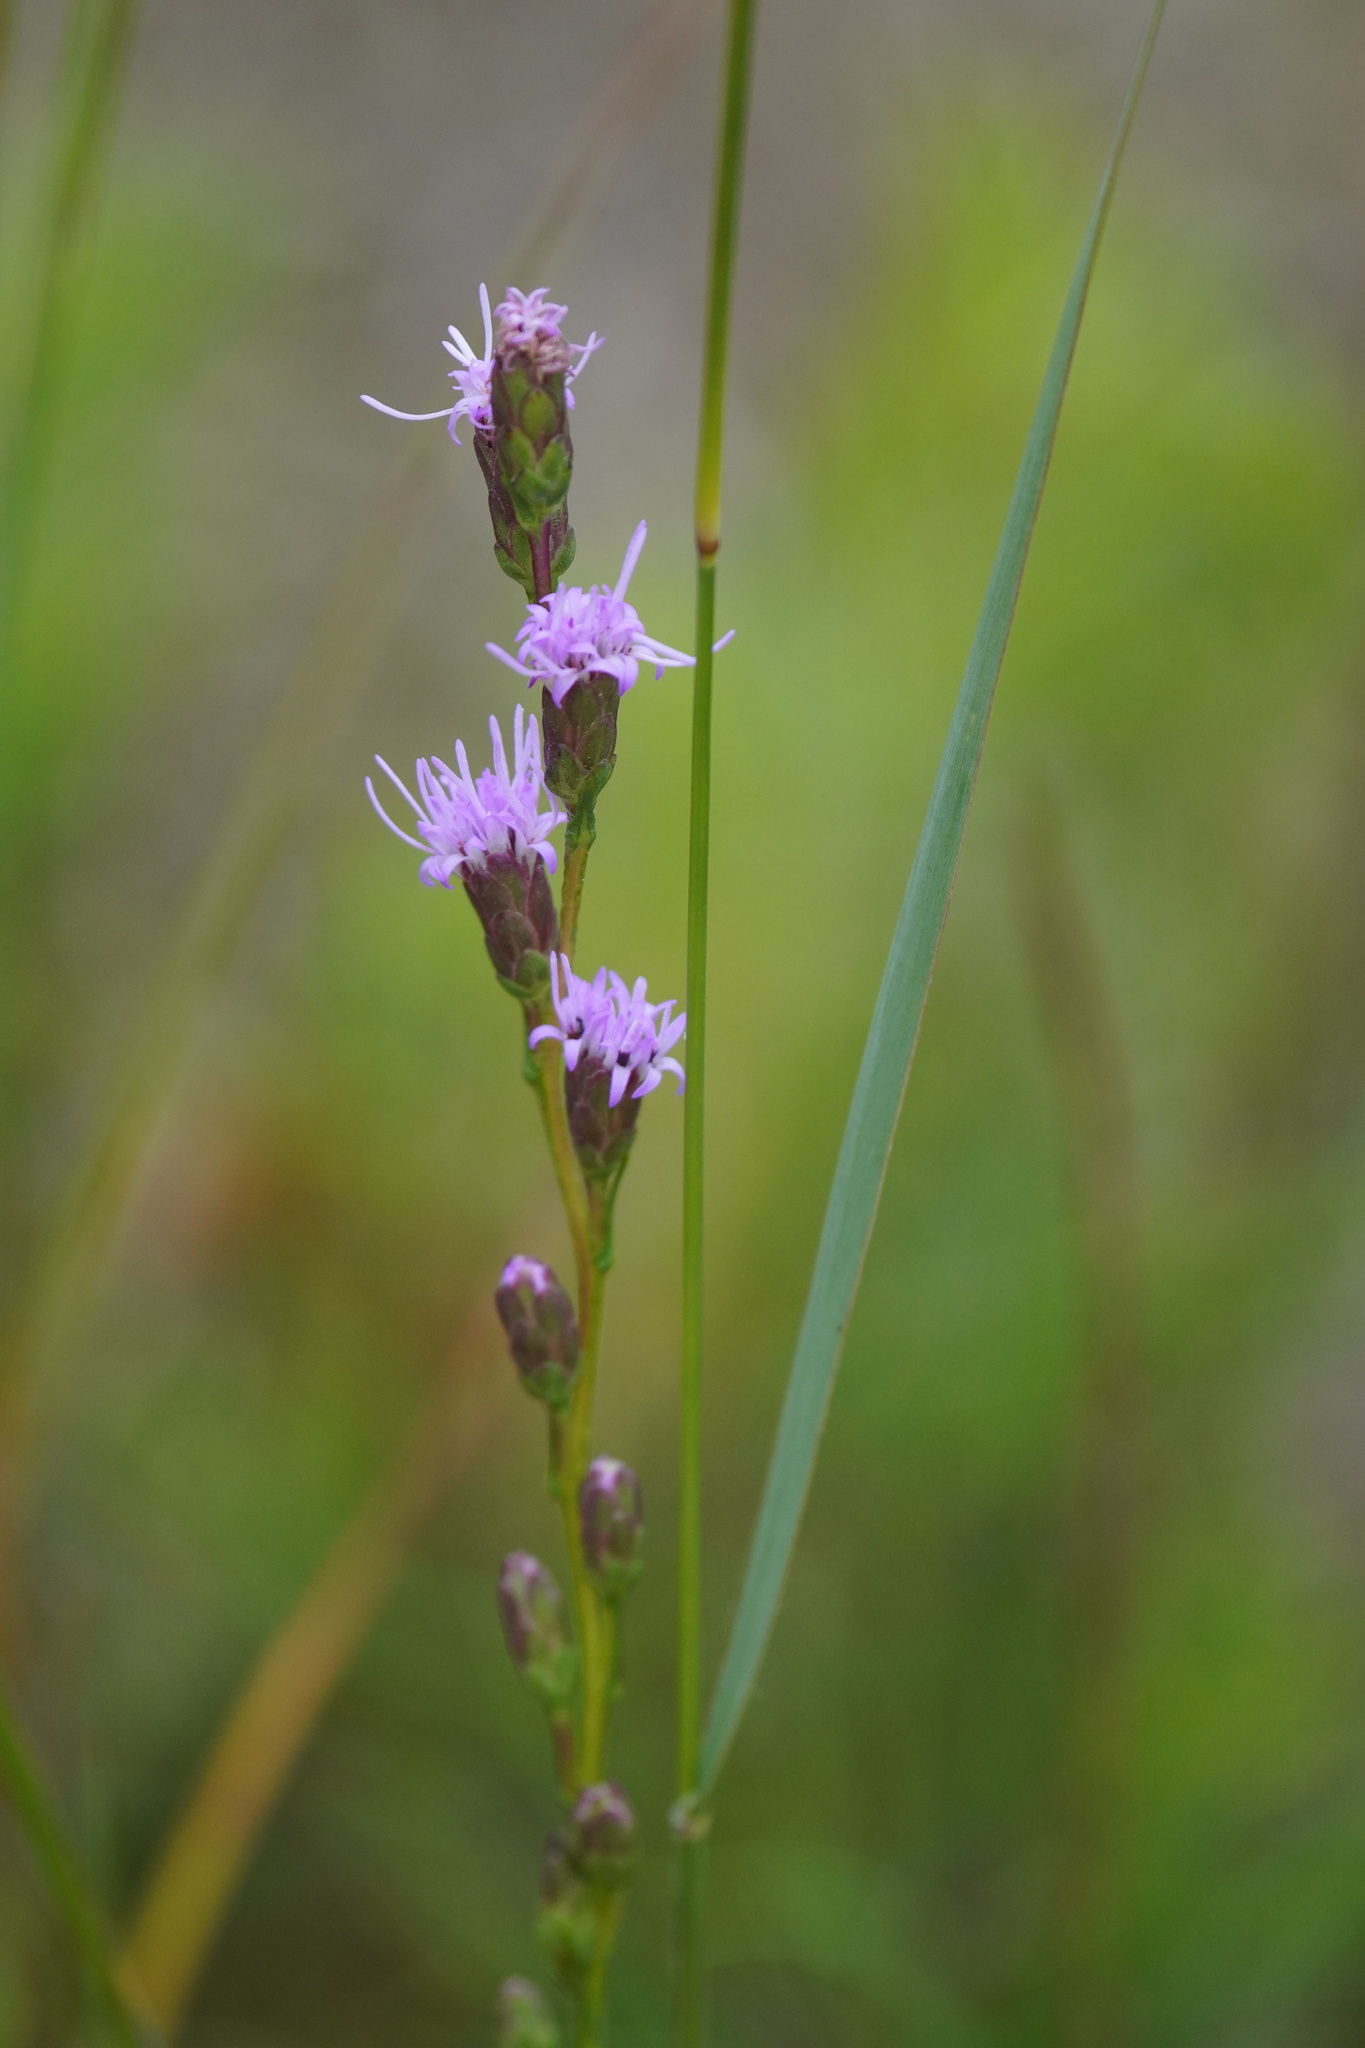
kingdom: Plantae
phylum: Tracheophyta
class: Magnoliopsida
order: Asterales
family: Asteraceae
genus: Liatris
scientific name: Liatris pilosa
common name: Grass-leaf gayfeather
